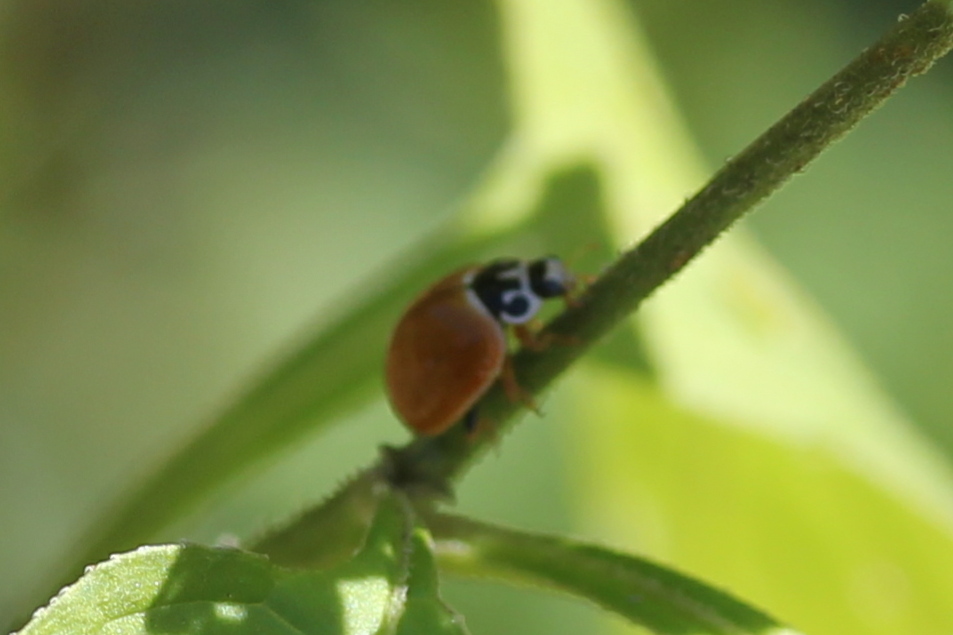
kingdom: Animalia
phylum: Arthropoda
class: Insecta
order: Coleoptera
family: Coccinellidae
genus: Cycloneda
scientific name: Cycloneda munda
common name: Polished lady beetle
